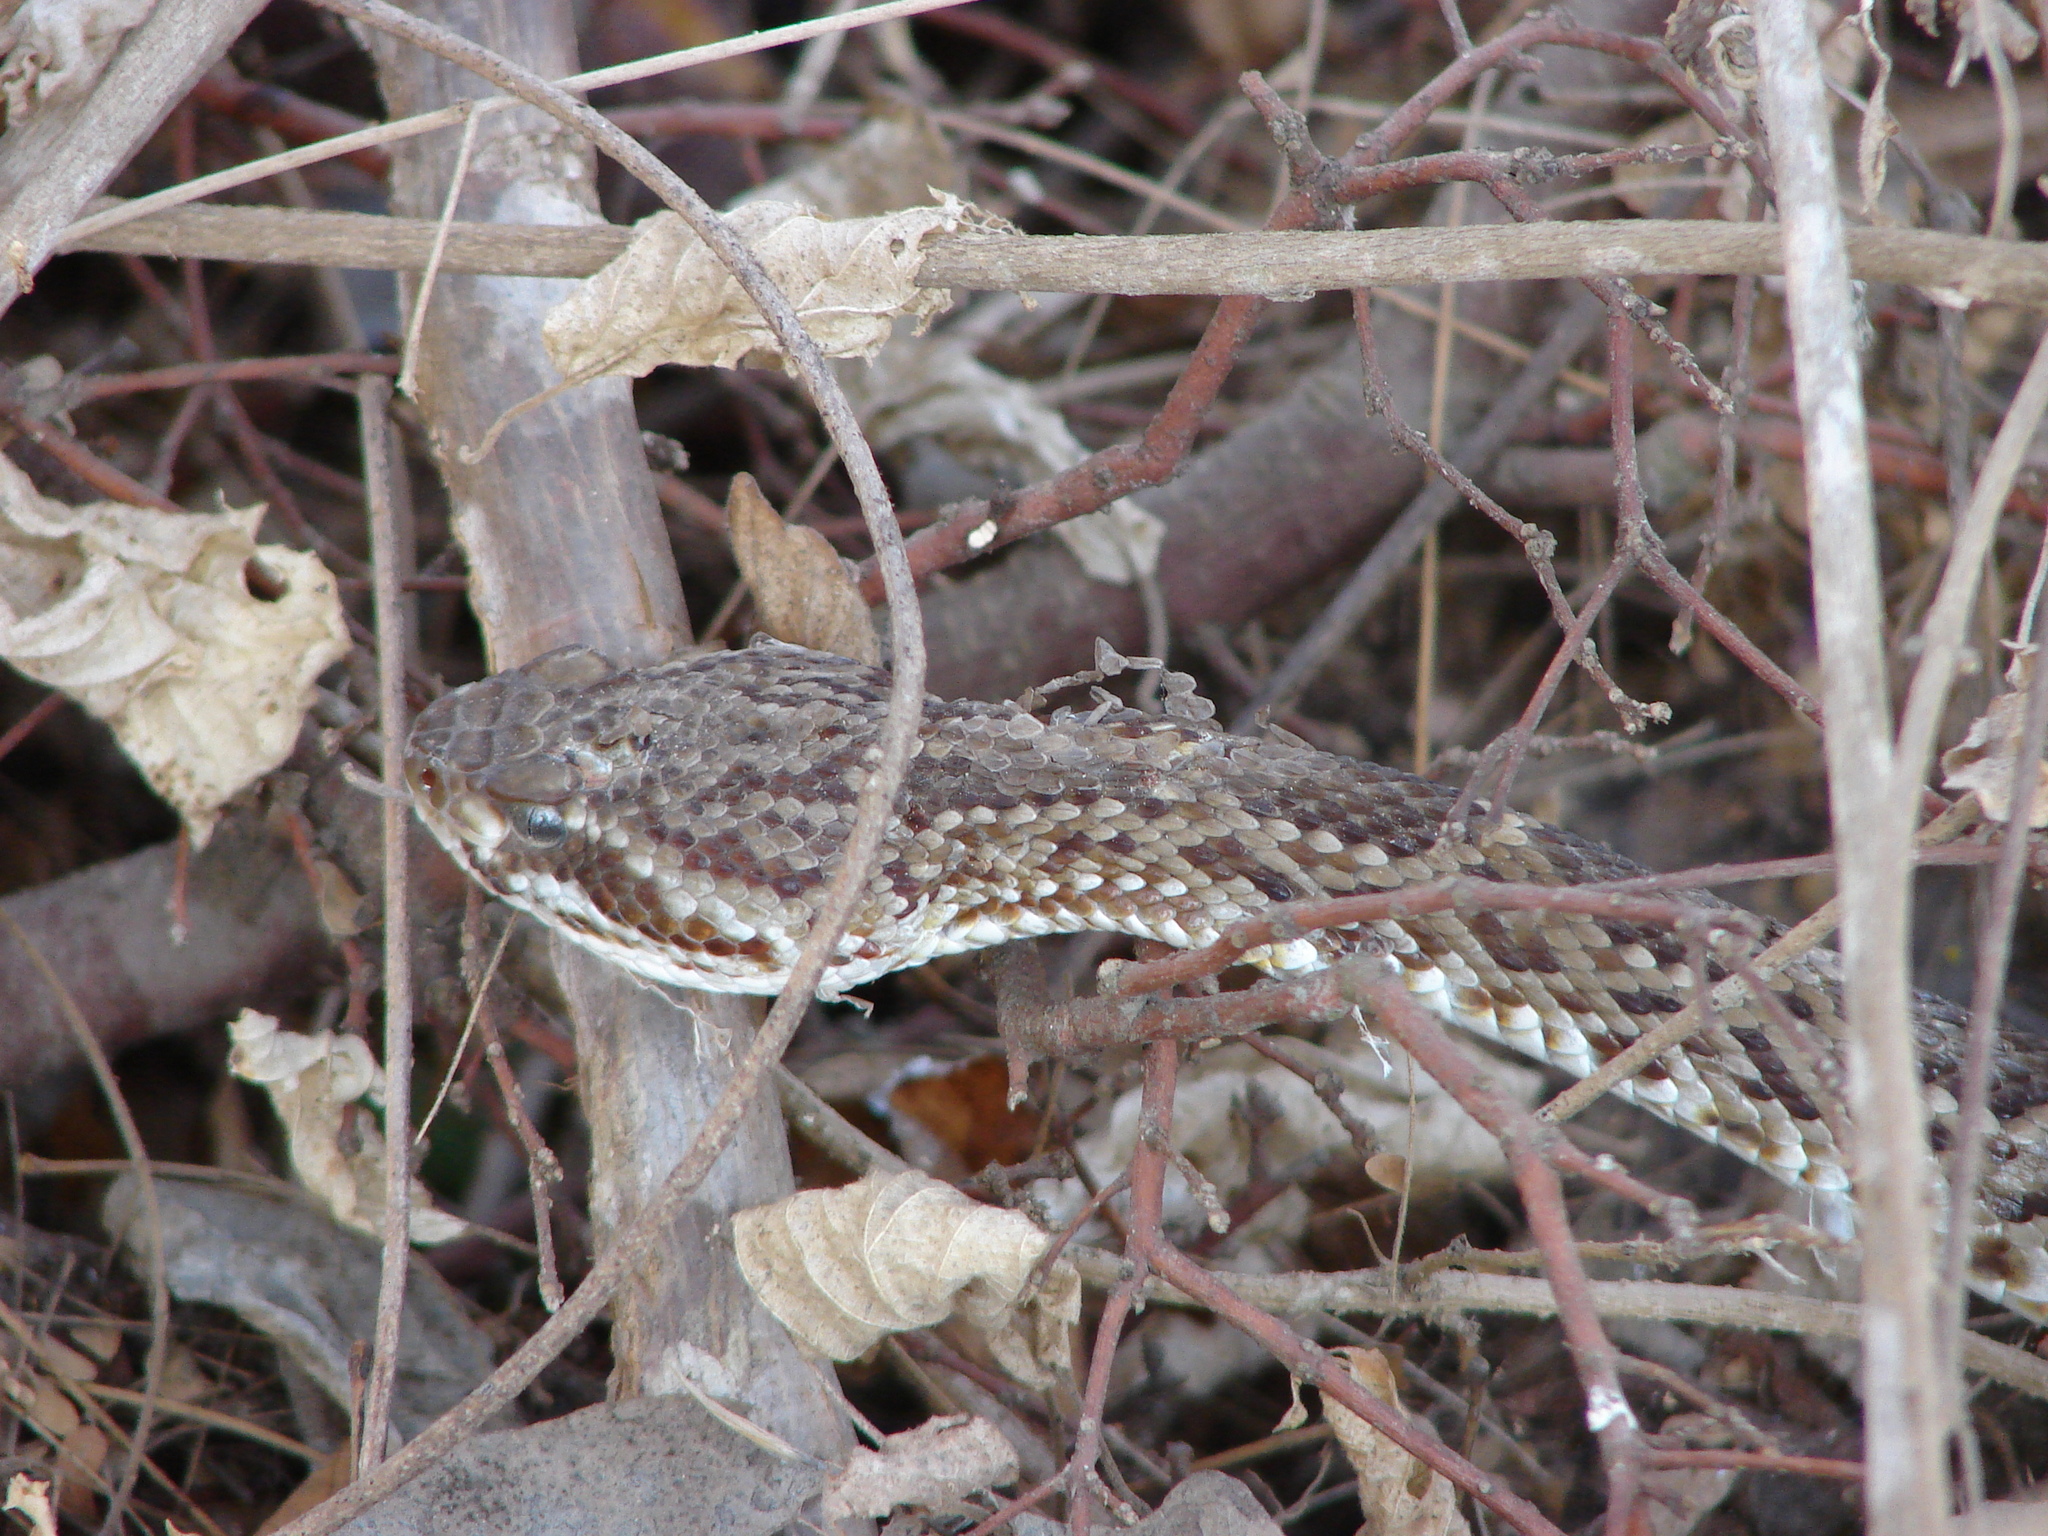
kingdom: Animalia
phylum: Chordata
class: Squamata
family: Viperidae
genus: Crotalus
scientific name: Crotalus basiliscus
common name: Basilisk rattlesnake
